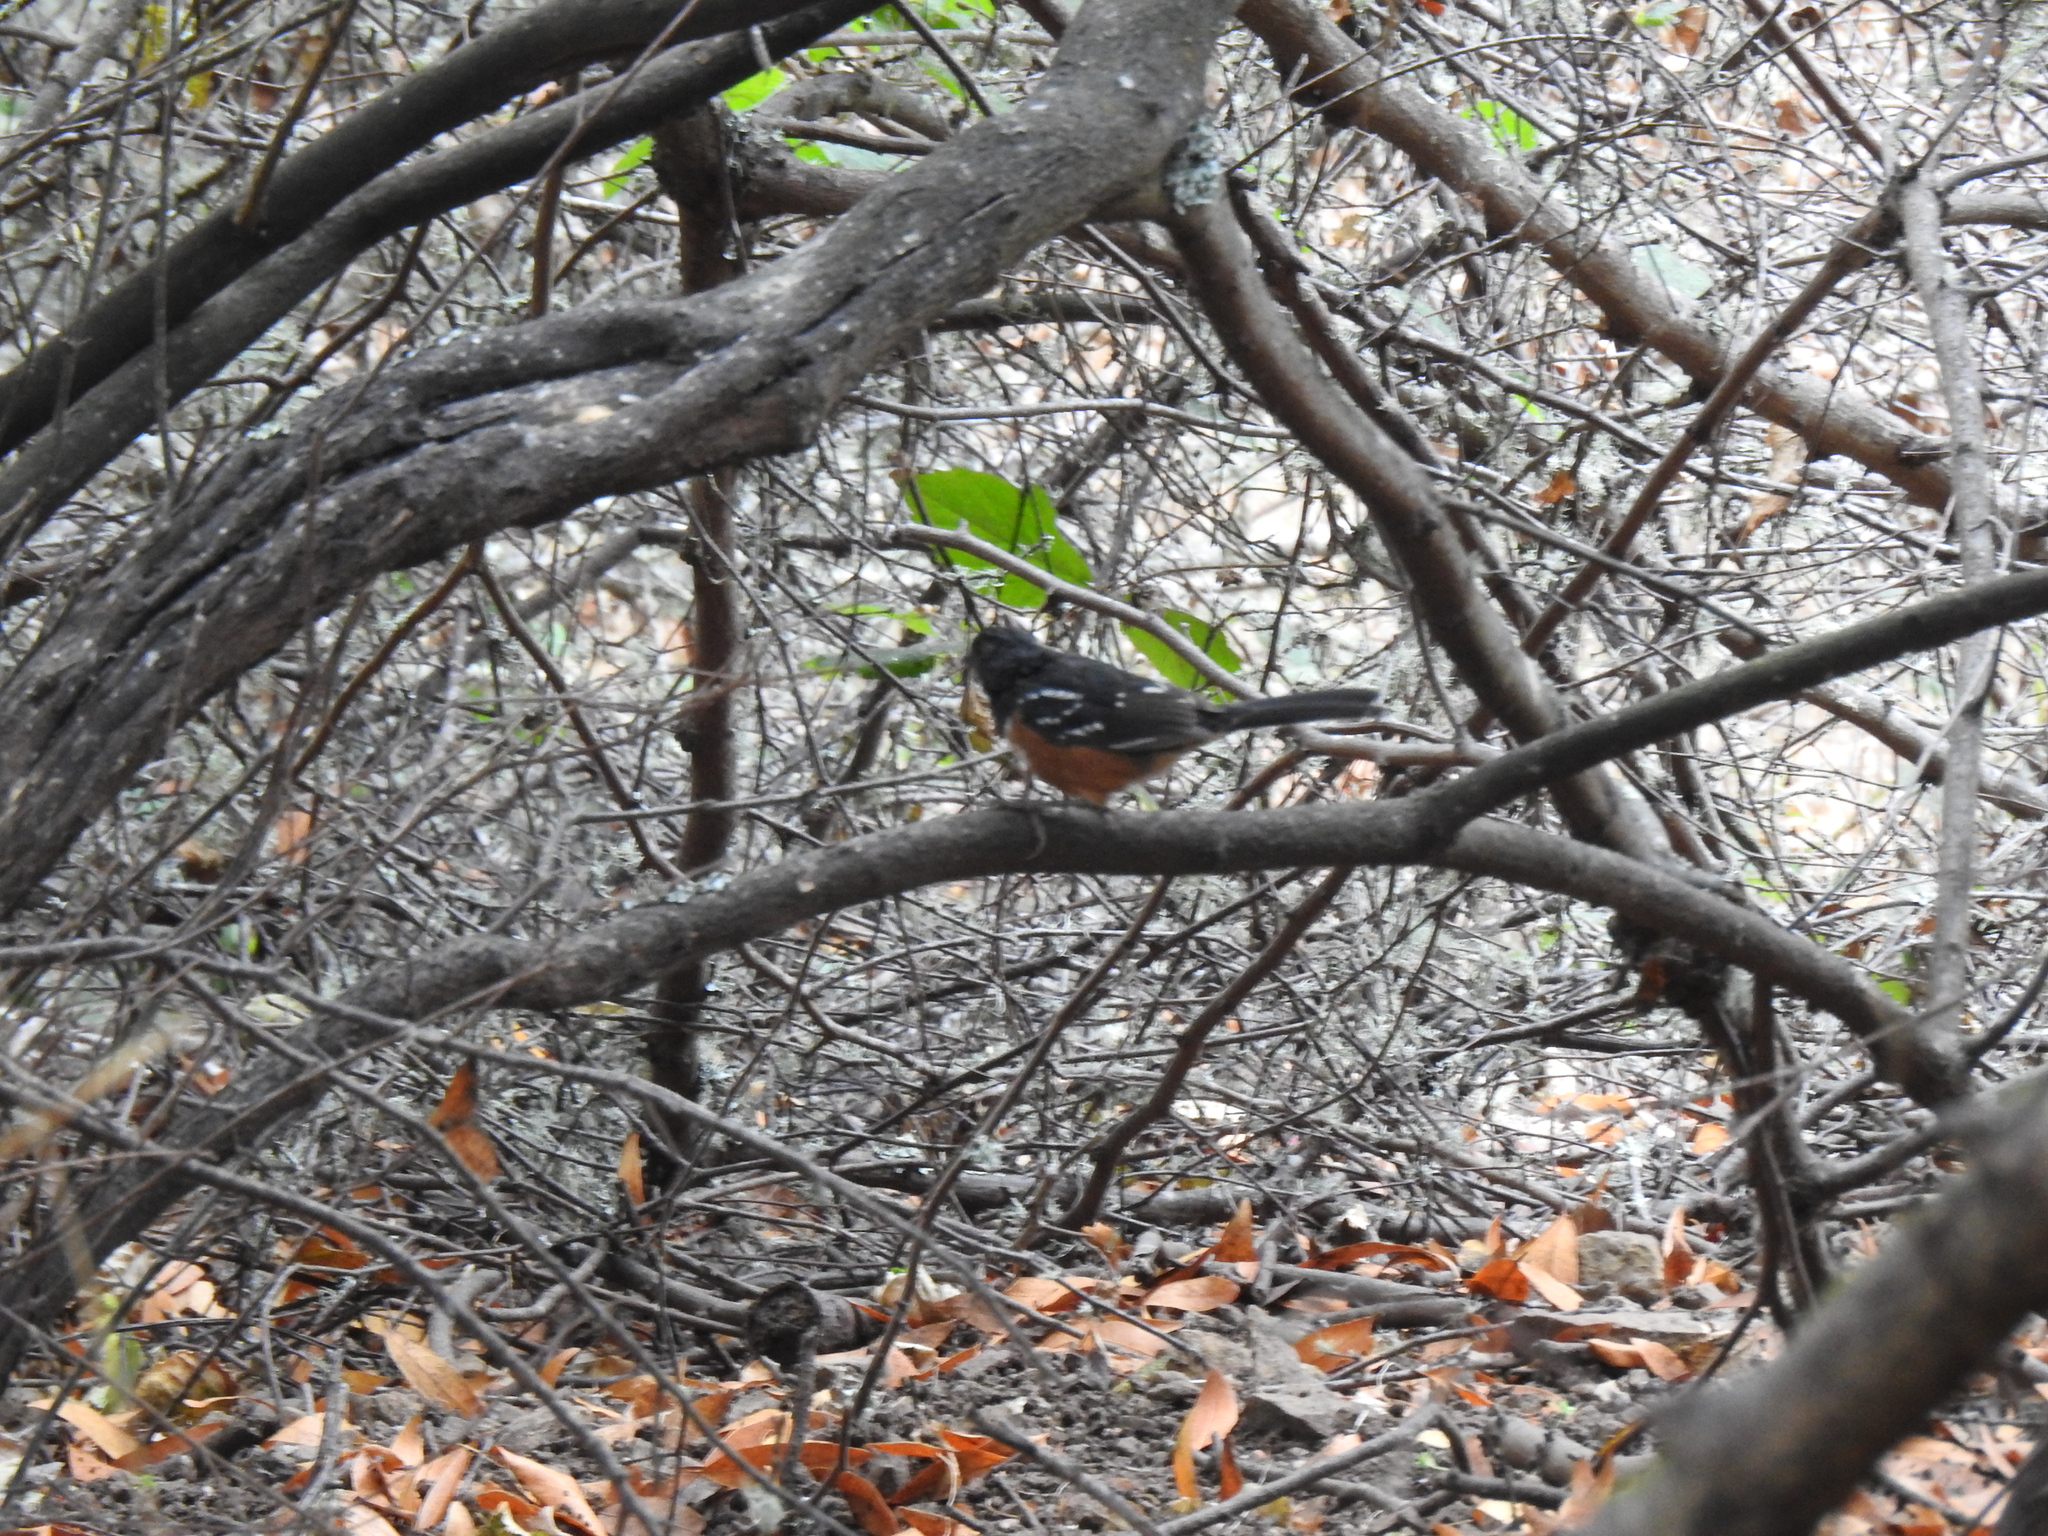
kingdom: Animalia
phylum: Chordata
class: Aves
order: Passeriformes
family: Passerellidae
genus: Pipilo
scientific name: Pipilo maculatus
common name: Spotted towhee
